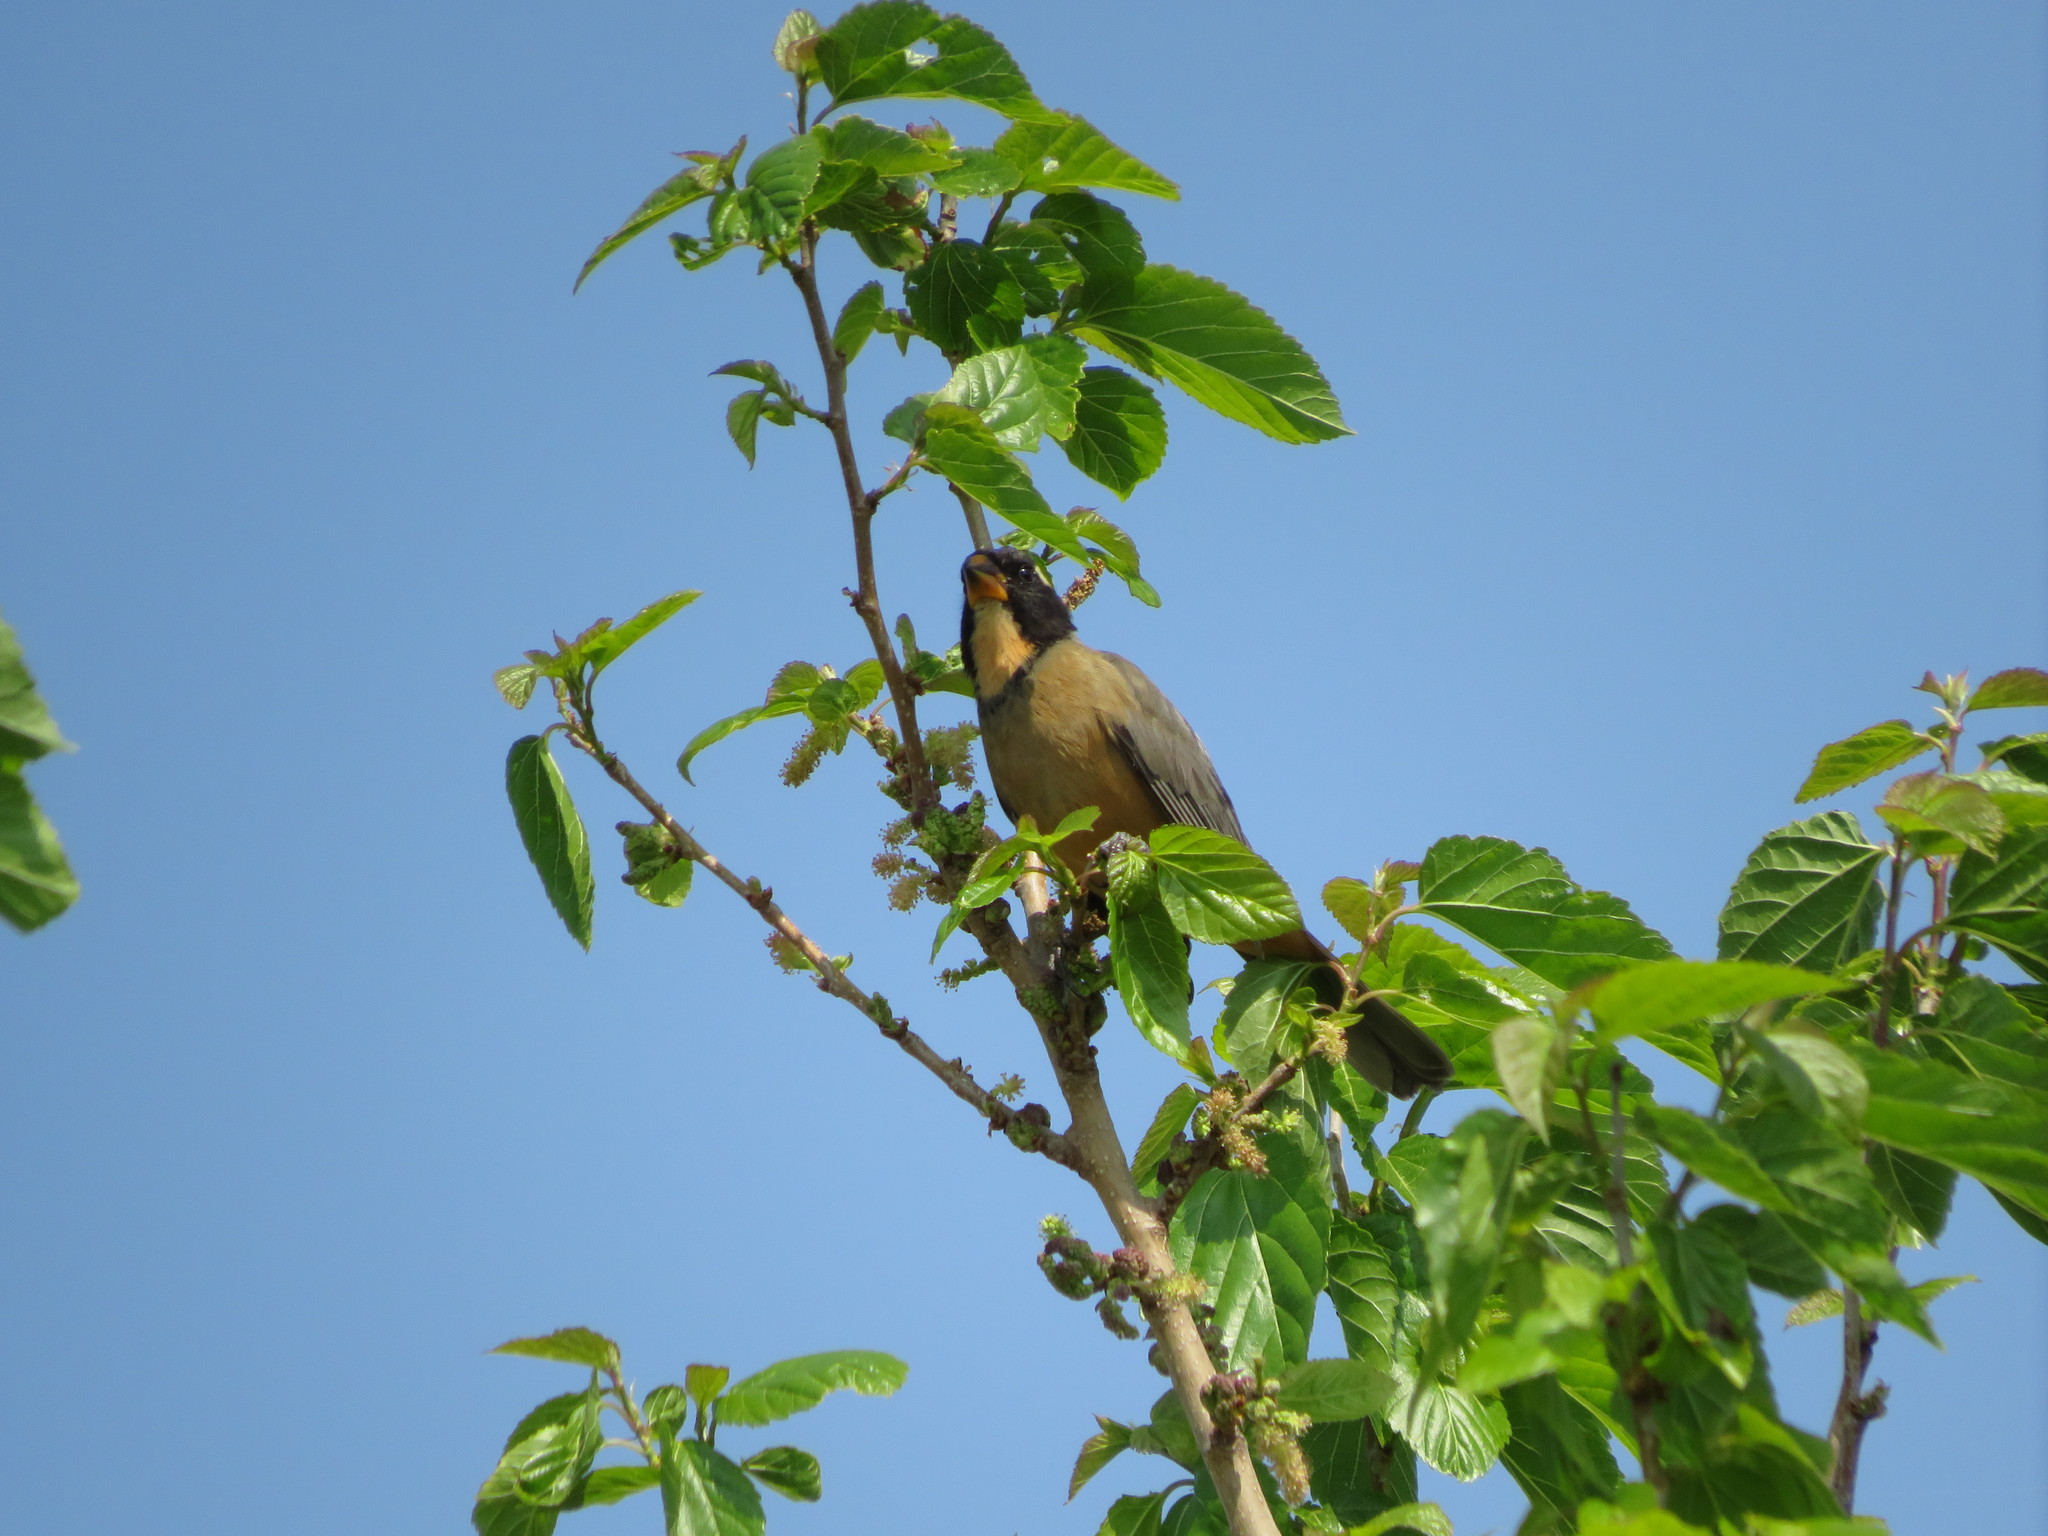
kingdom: Animalia
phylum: Chordata
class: Aves
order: Passeriformes
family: Thraupidae
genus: Saltator
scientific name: Saltator aurantiirostris
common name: Golden-billed saltator
